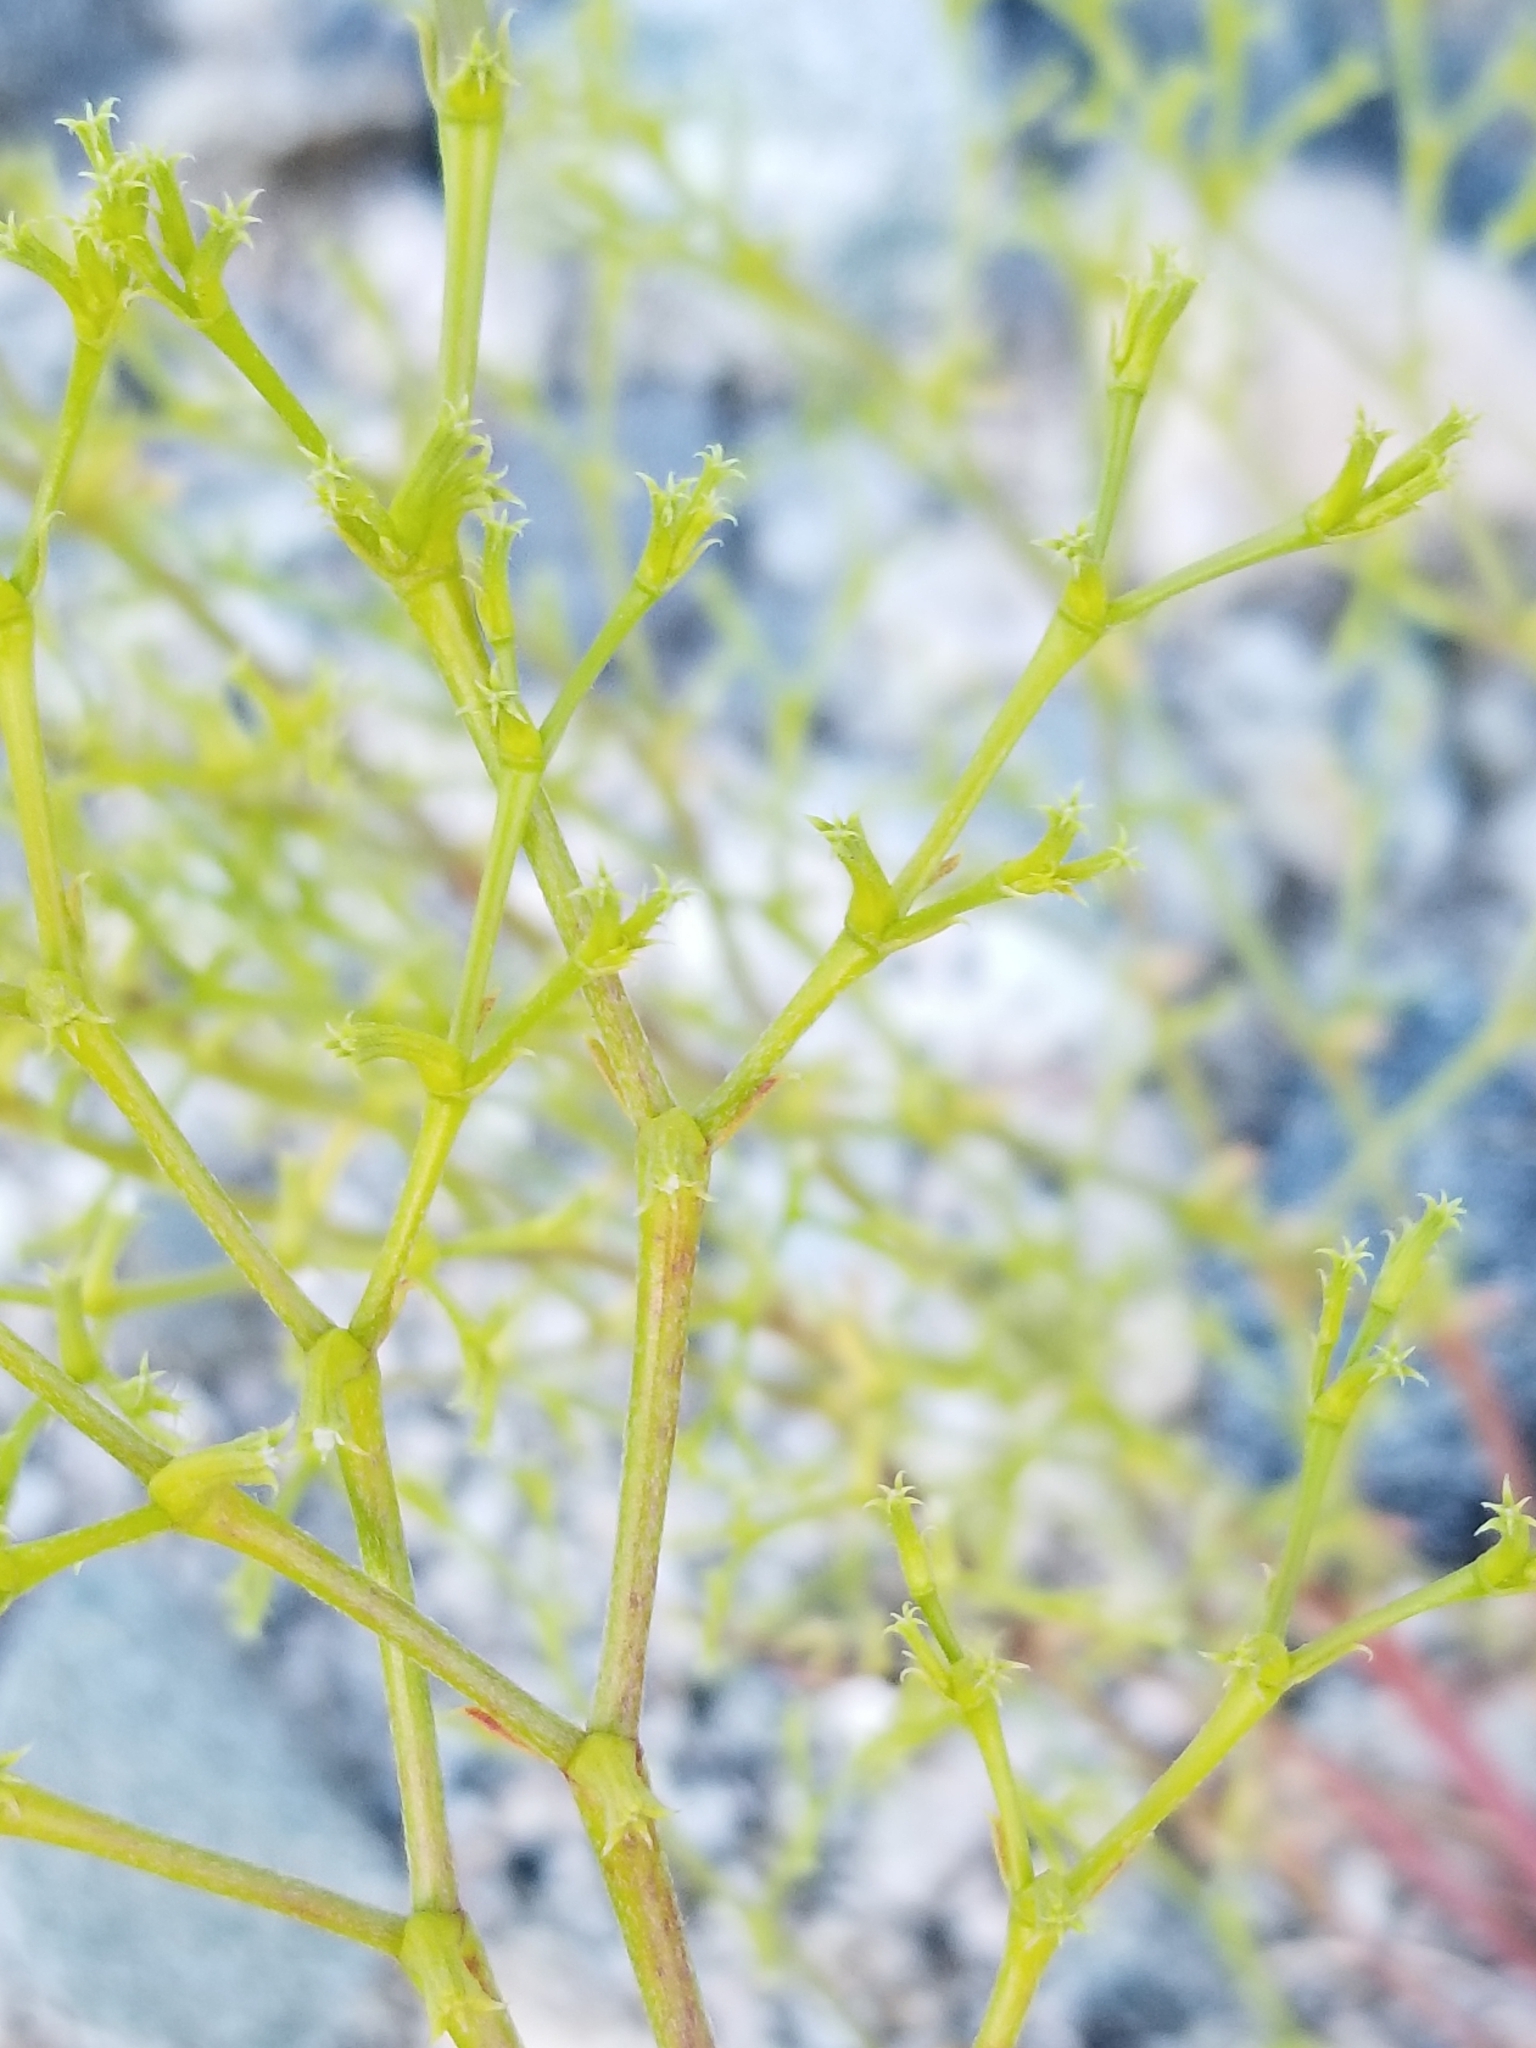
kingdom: Plantae
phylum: Tracheophyta
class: Magnoliopsida
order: Caryophyllales
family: Polygonaceae
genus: Chorizanthe
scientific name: Chorizanthe brevicornu
